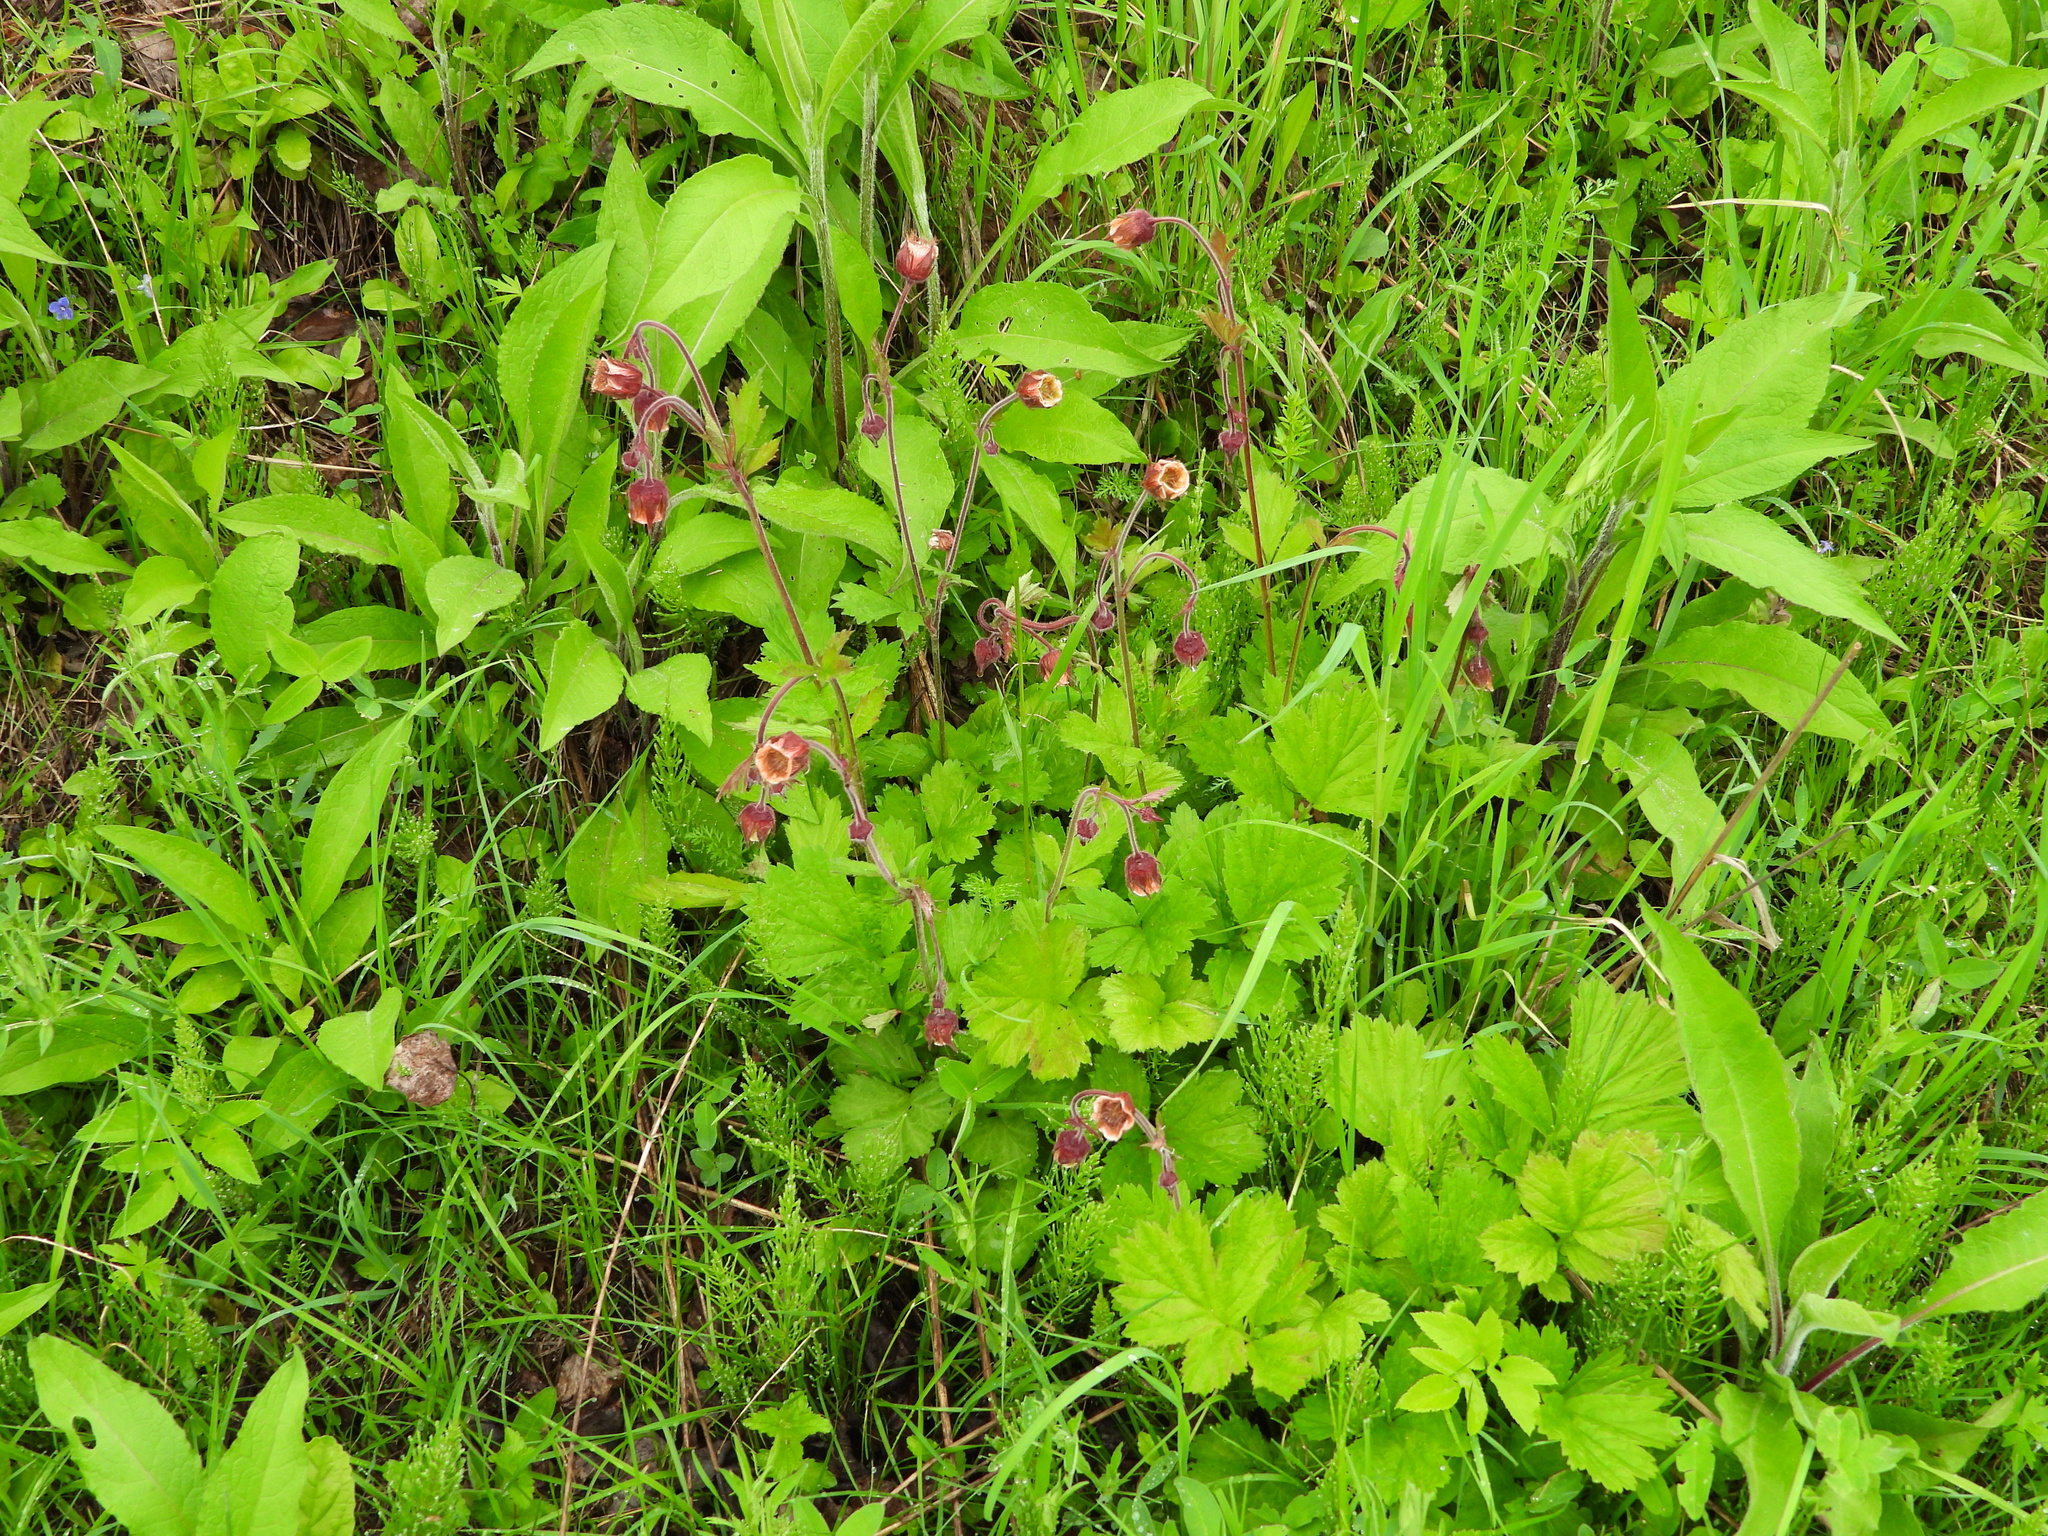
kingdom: Plantae
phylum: Tracheophyta
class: Magnoliopsida
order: Rosales
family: Rosaceae
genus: Geum
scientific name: Geum rivale
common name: Water avens
